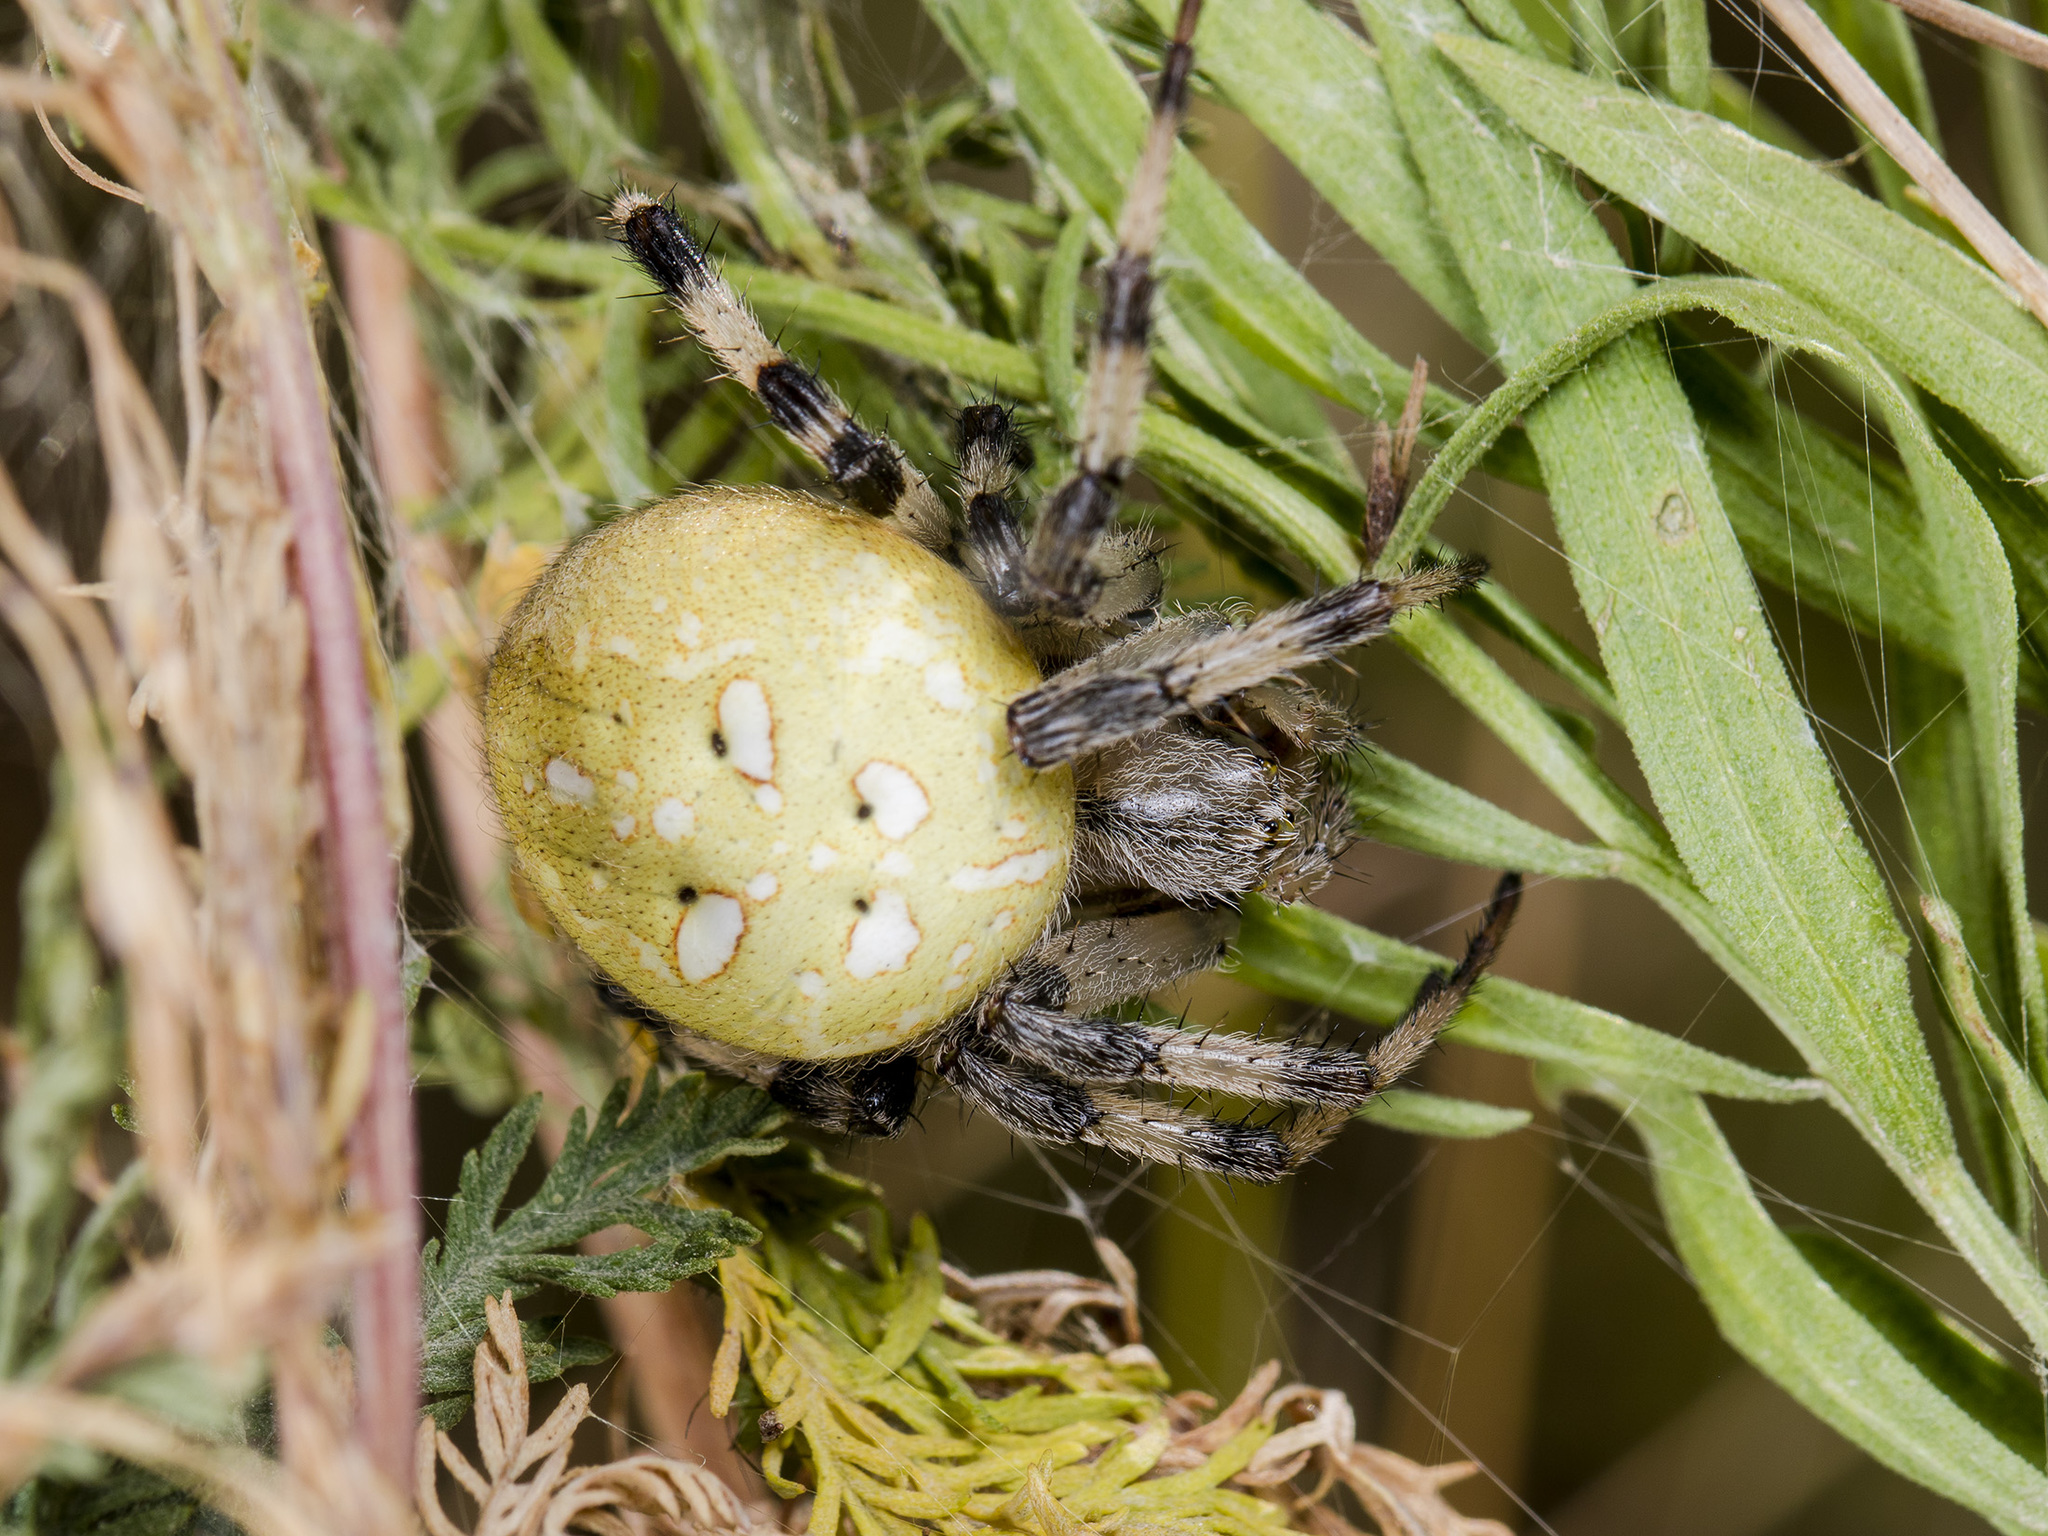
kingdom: Animalia
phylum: Arthropoda
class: Arachnida
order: Araneae
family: Araneidae
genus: Araneus
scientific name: Araneus quadratus
